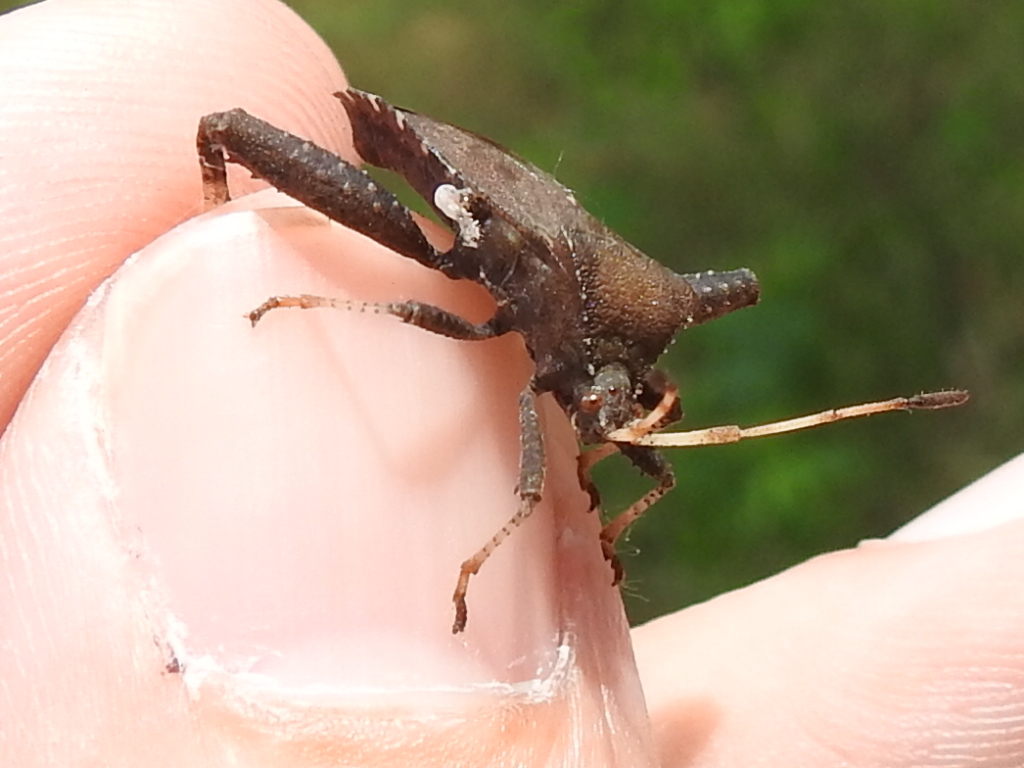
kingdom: Animalia
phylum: Arthropoda
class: Insecta
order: Hemiptera
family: Coreidae
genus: Euthochtha
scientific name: Euthochtha galeator
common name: Helmeted squash bug
